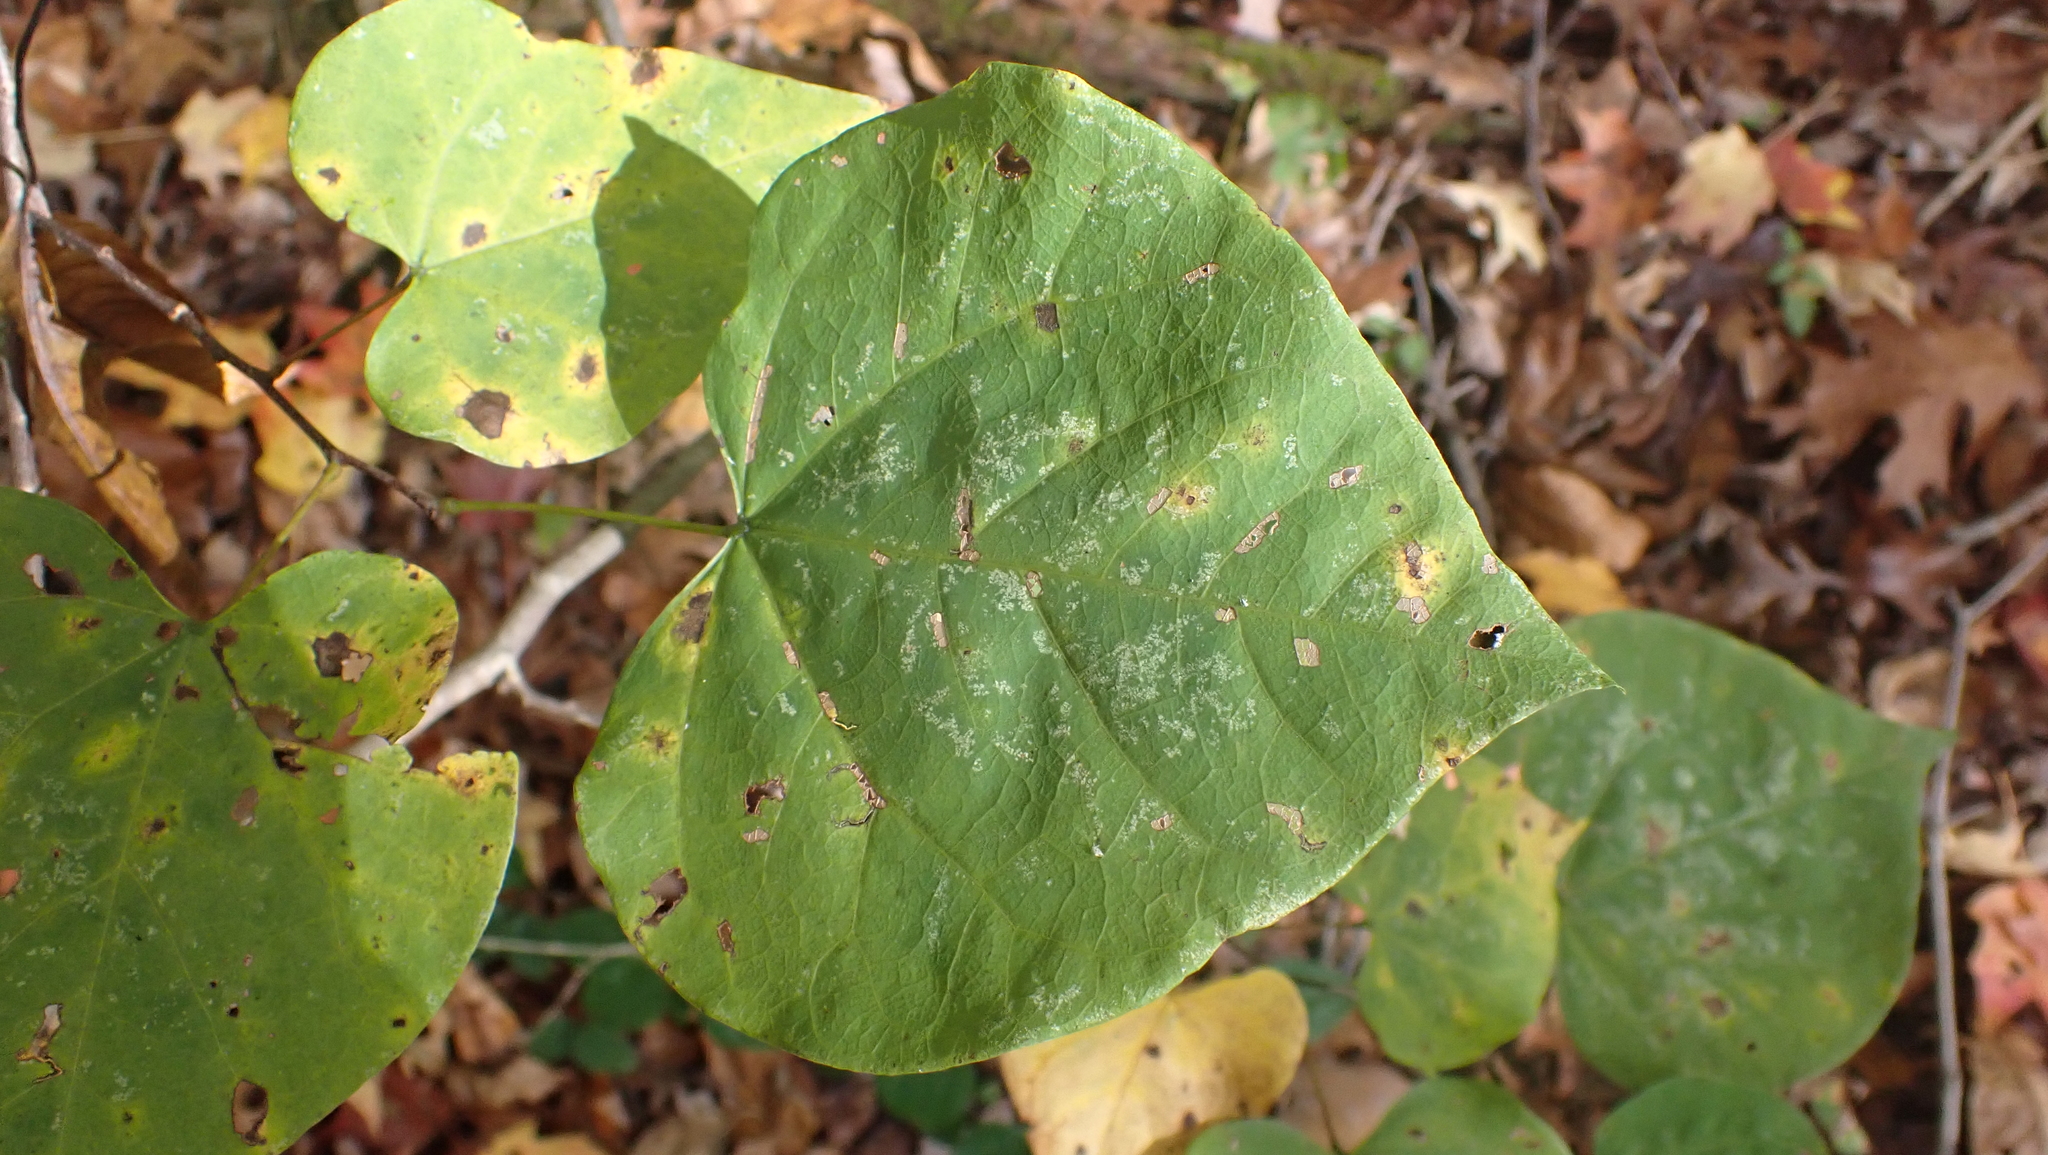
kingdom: Plantae
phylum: Tracheophyta
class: Magnoliopsida
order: Fabales
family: Fabaceae
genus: Cercis
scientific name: Cercis canadensis
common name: Eastern redbud
